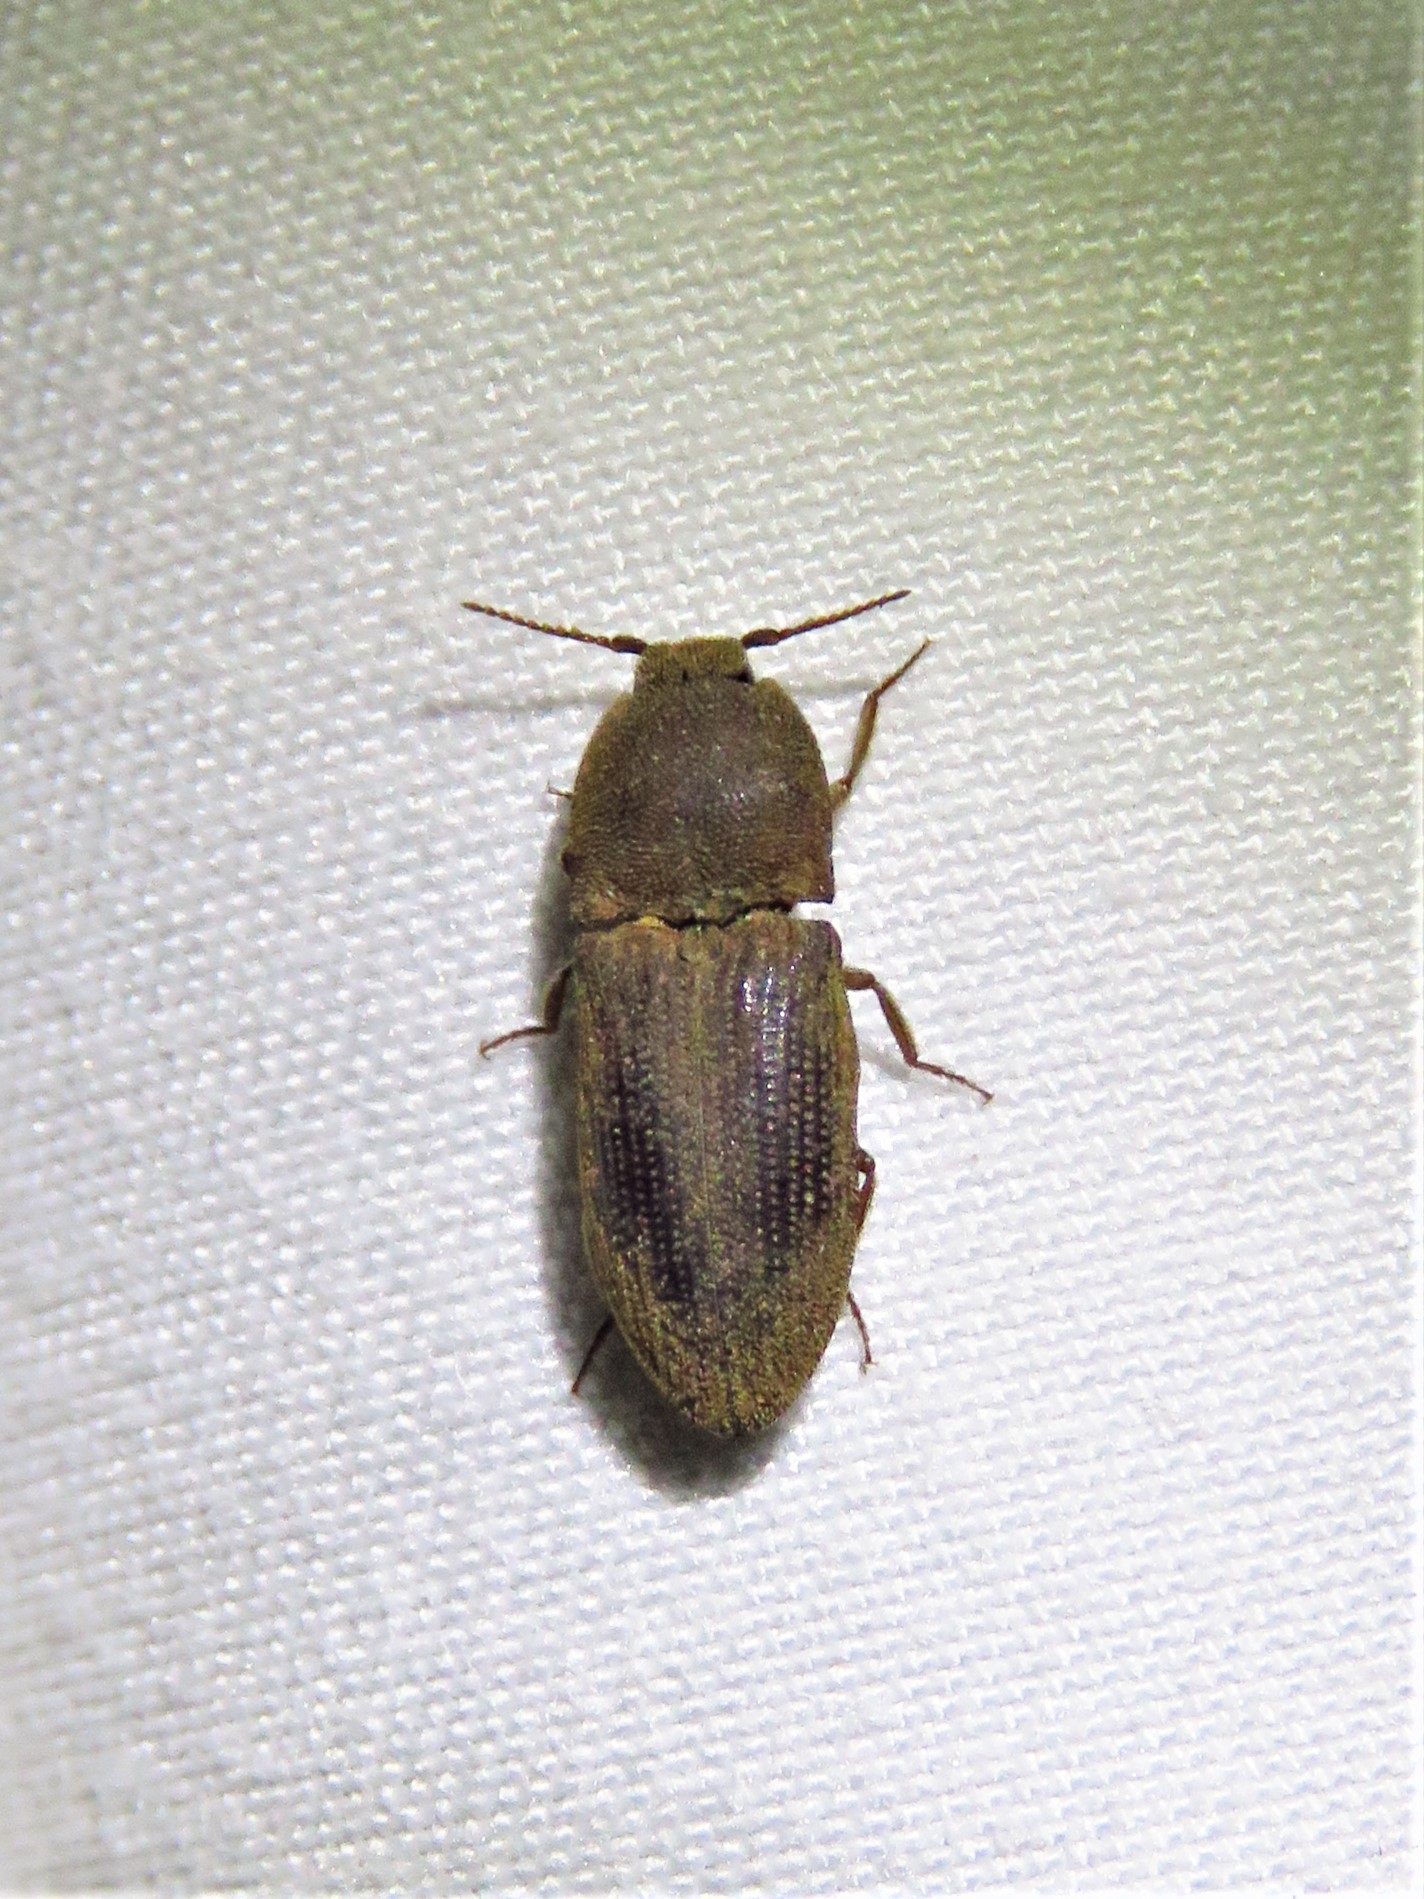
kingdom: Animalia
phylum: Arthropoda
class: Insecta
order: Coleoptera
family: Elateridae
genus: Agrypnus
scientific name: Agrypnus rectangularis
